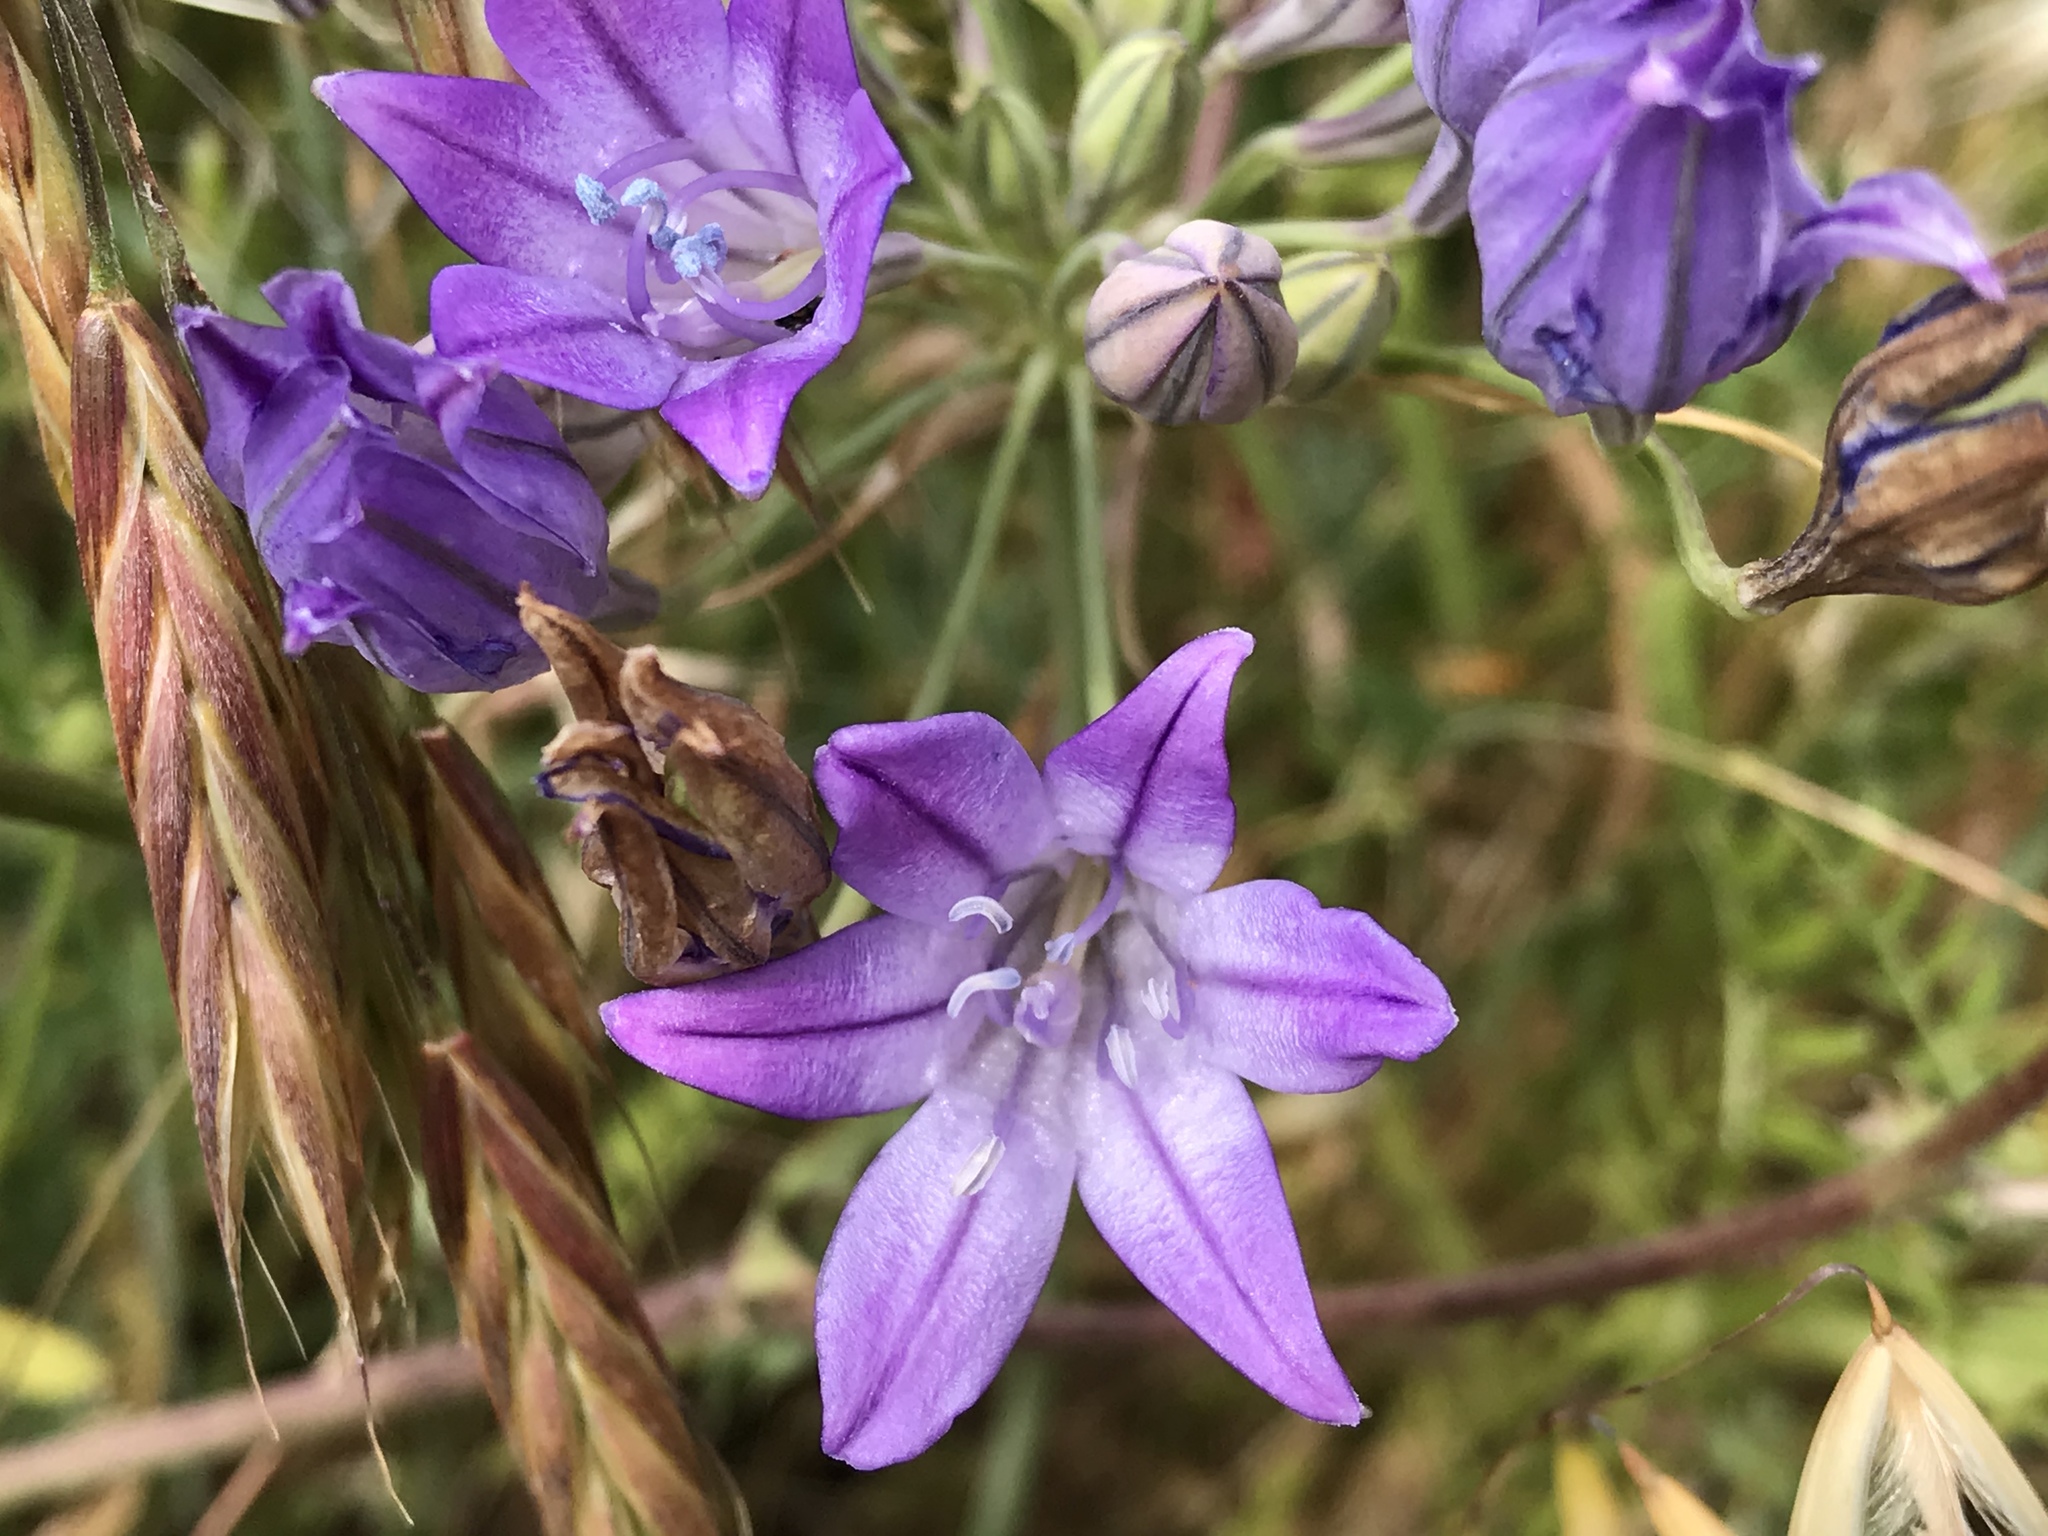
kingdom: Plantae
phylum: Tracheophyta
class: Liliopsida
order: Asparagales
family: Asparagaceae
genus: Triteleia
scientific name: Triteleia laxa
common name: Triplet-lily
